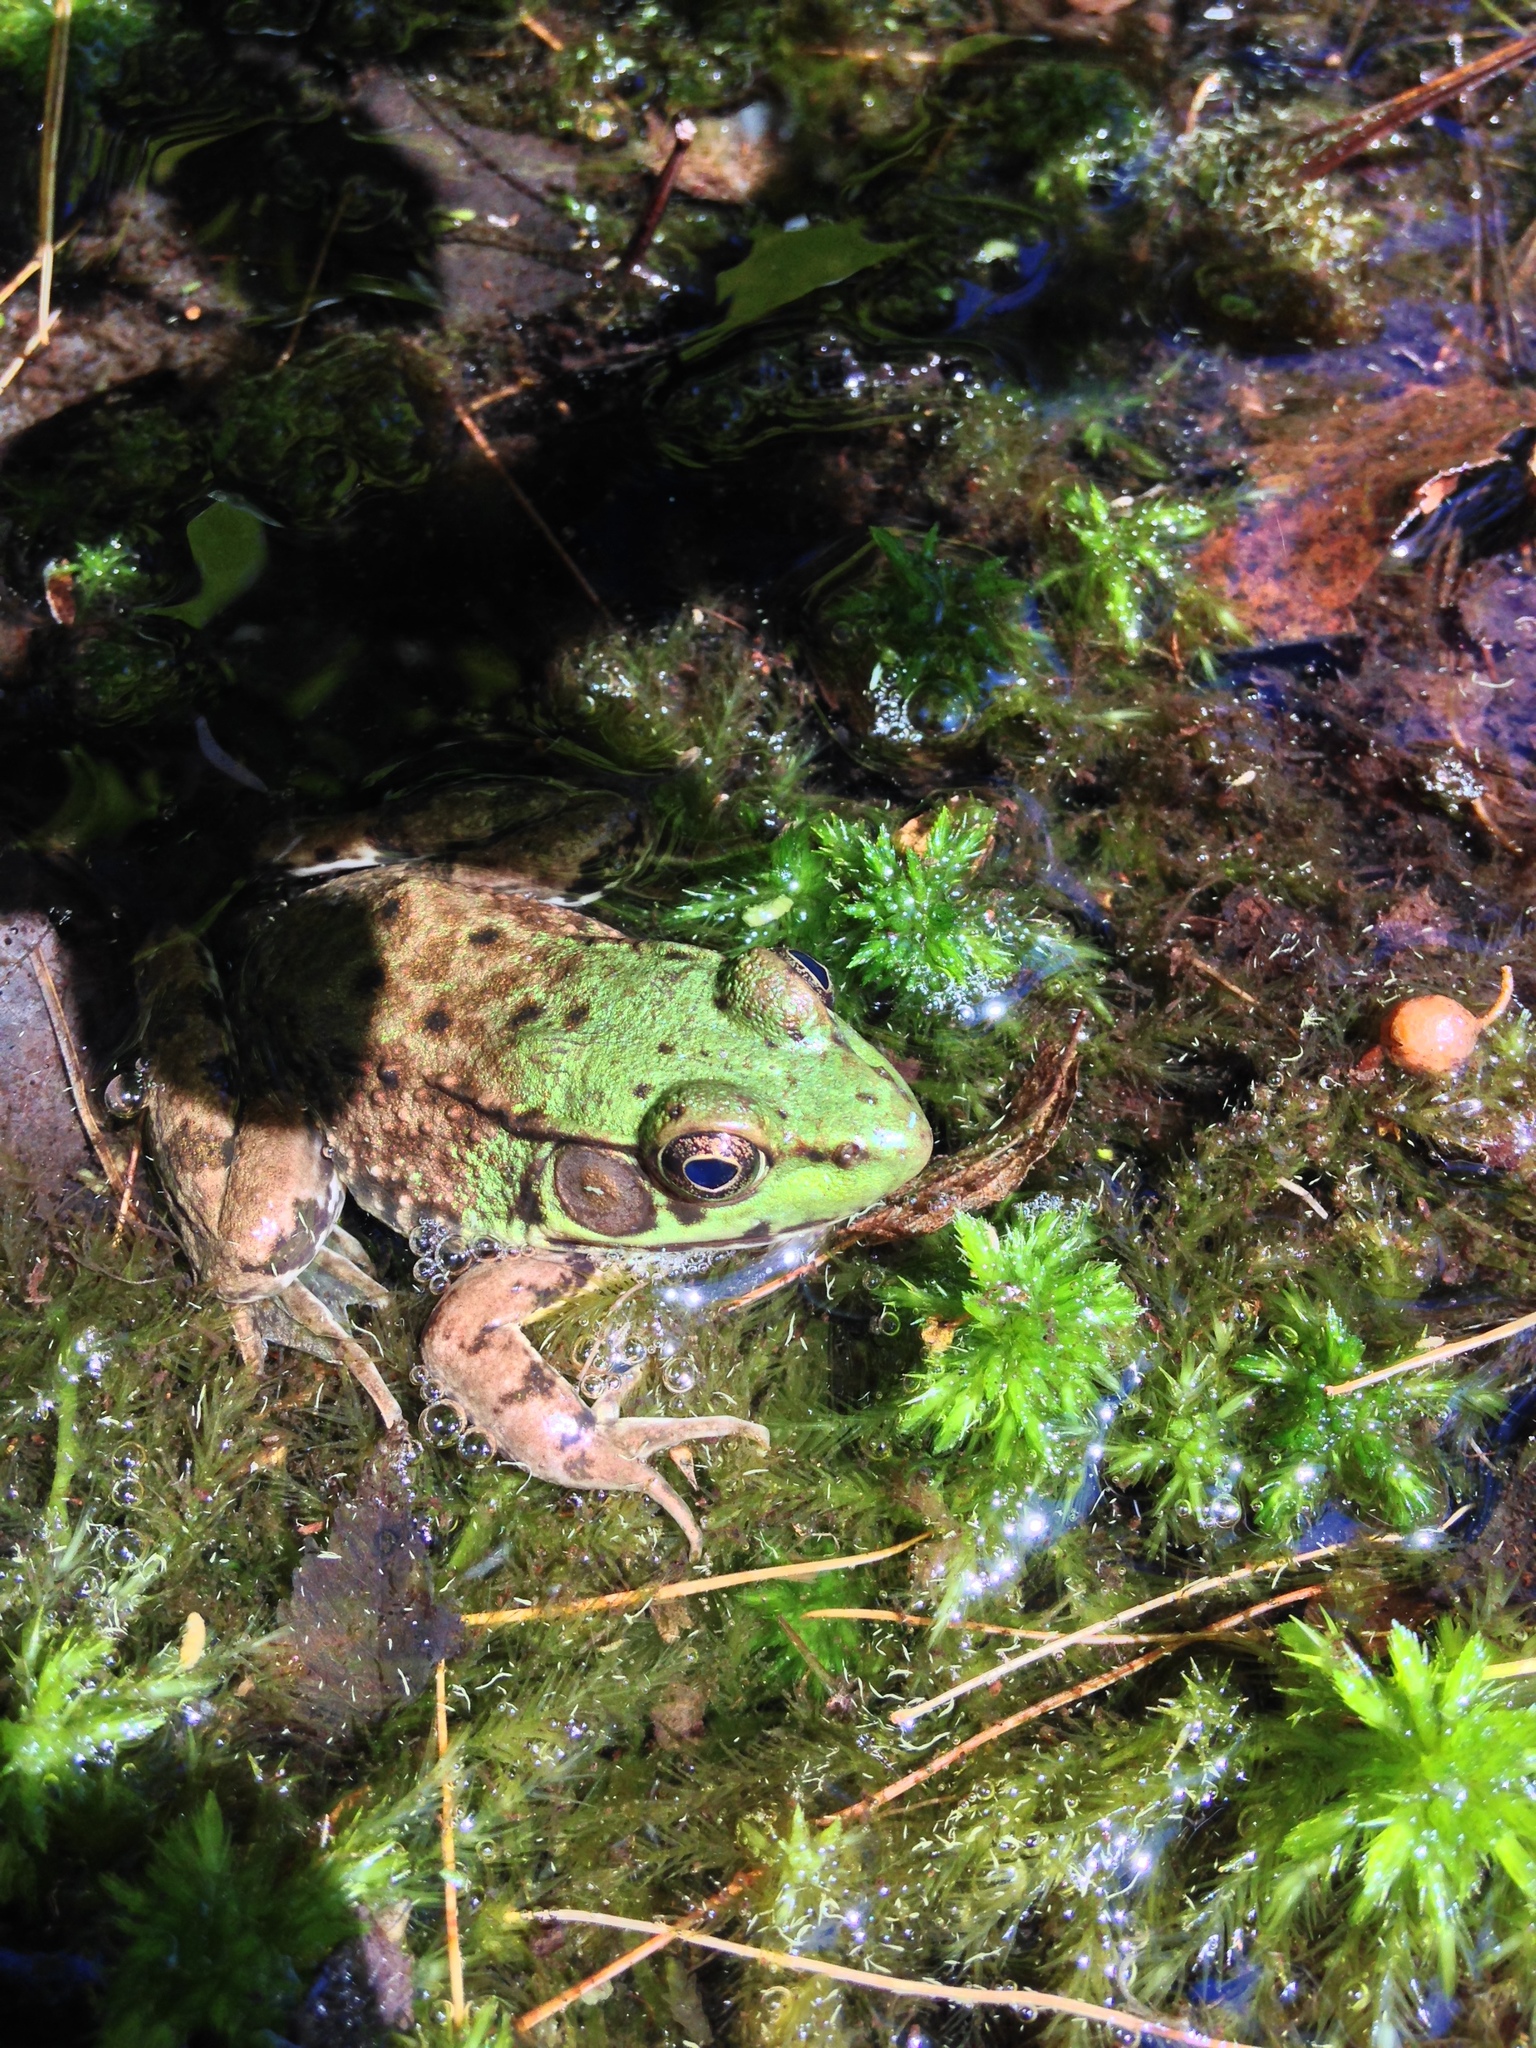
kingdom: Animalia
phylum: Chordata
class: Amphibia
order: Anura
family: Ranidae
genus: Lithobates
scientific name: Lithobates clamitans
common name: Green frog
